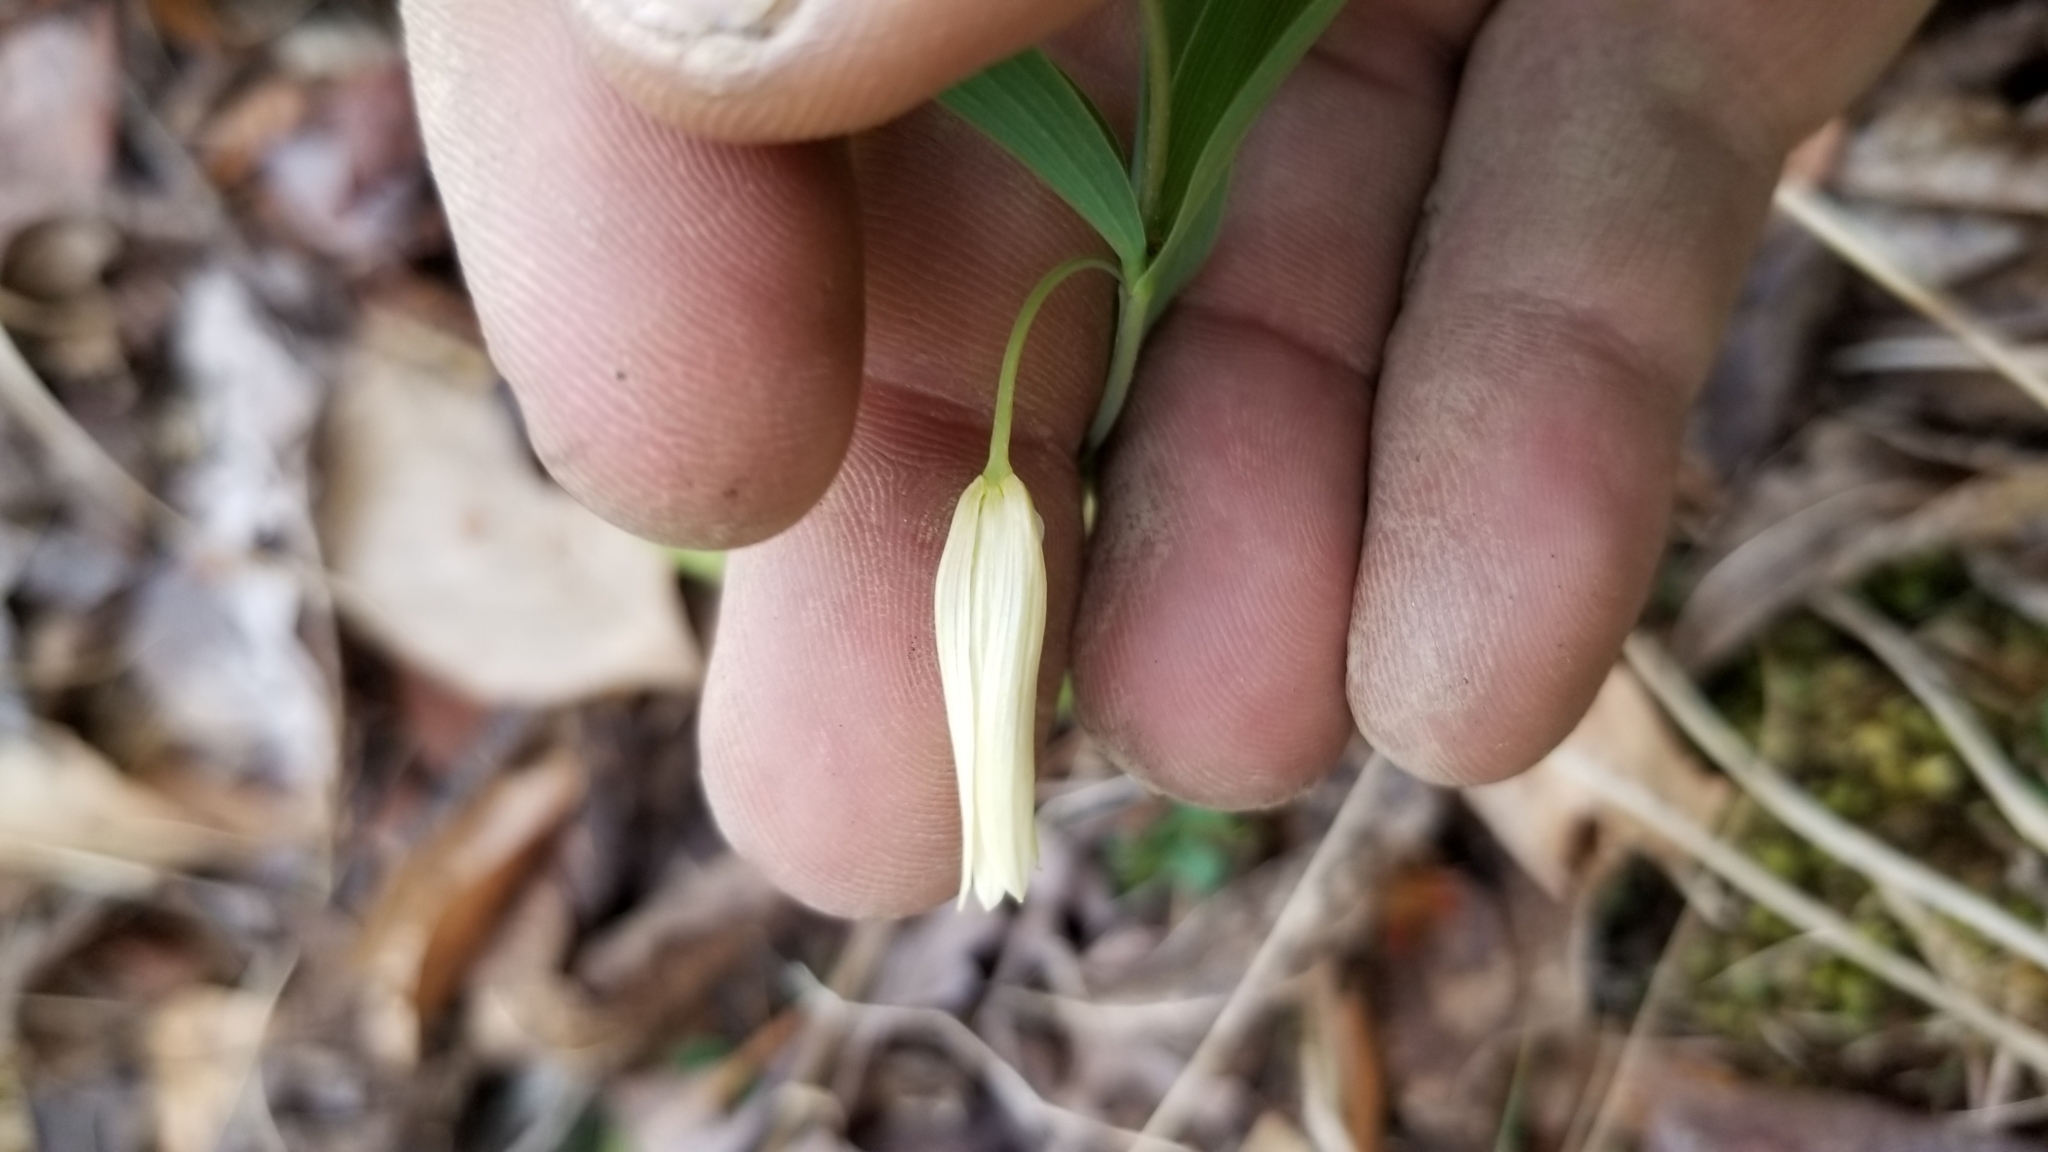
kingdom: Plantae
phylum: Tracheophyta
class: Liliopsida
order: Liliales
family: Colchicaceae
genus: Uvularia
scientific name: Uvularia sessilifolia
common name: Straw-lily
